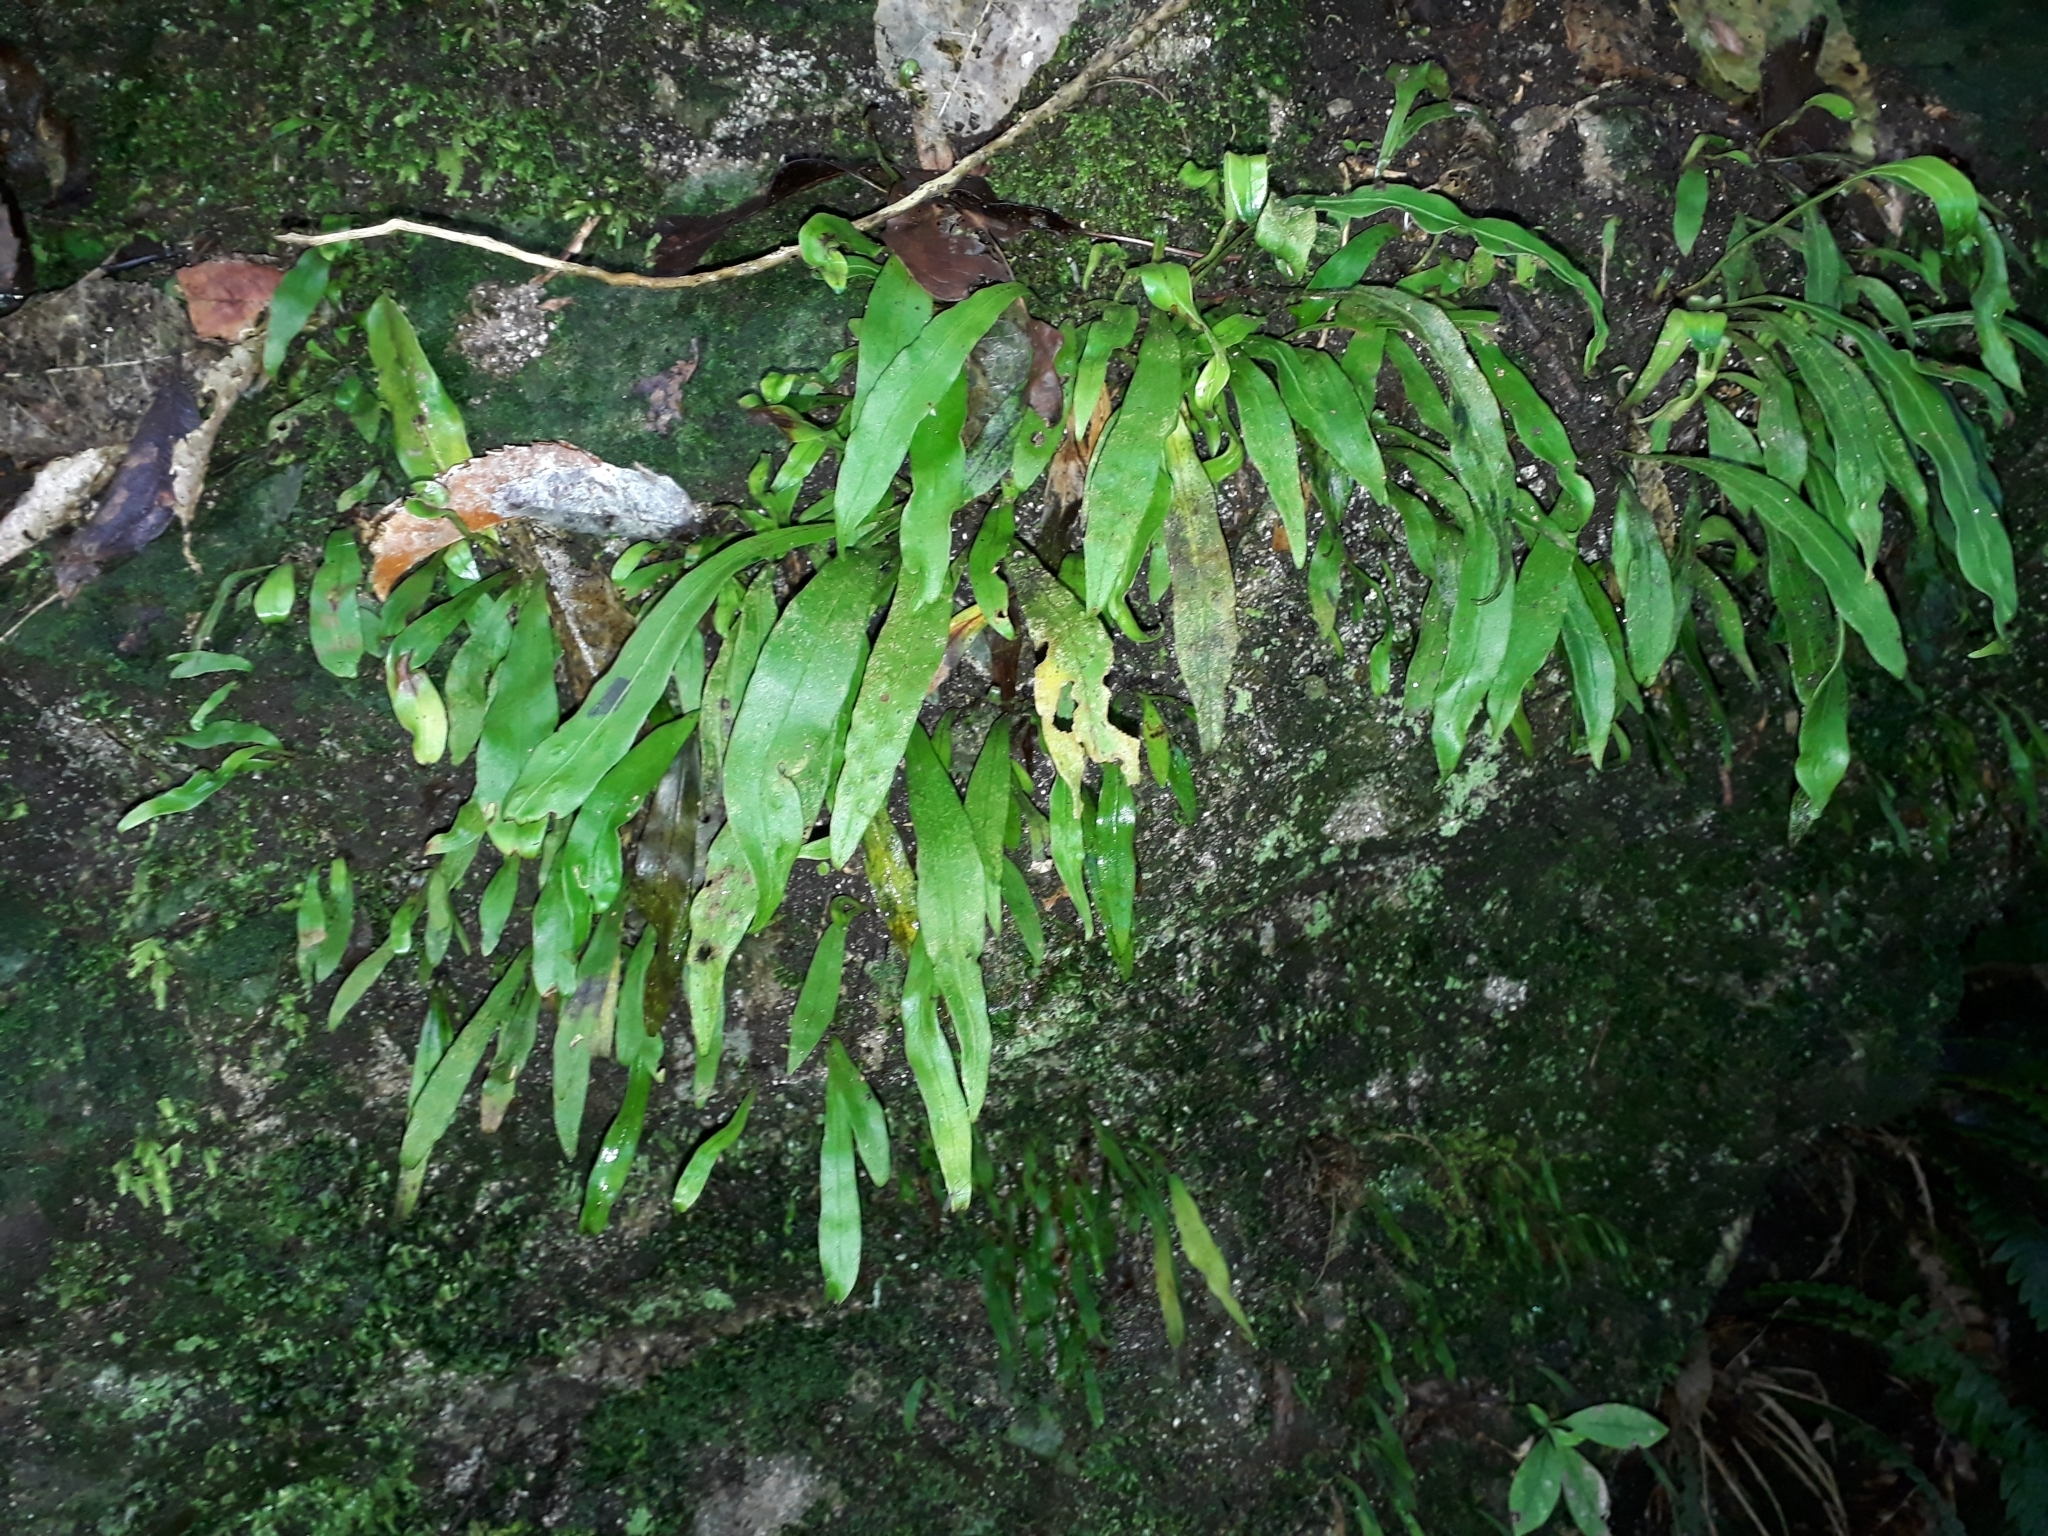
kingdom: Plantae
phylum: Tracheophyta
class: Polypodiopsida
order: Polypodiales
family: Polypodiaceae
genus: Loxogramme
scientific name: Loxogramme dictyopteris
